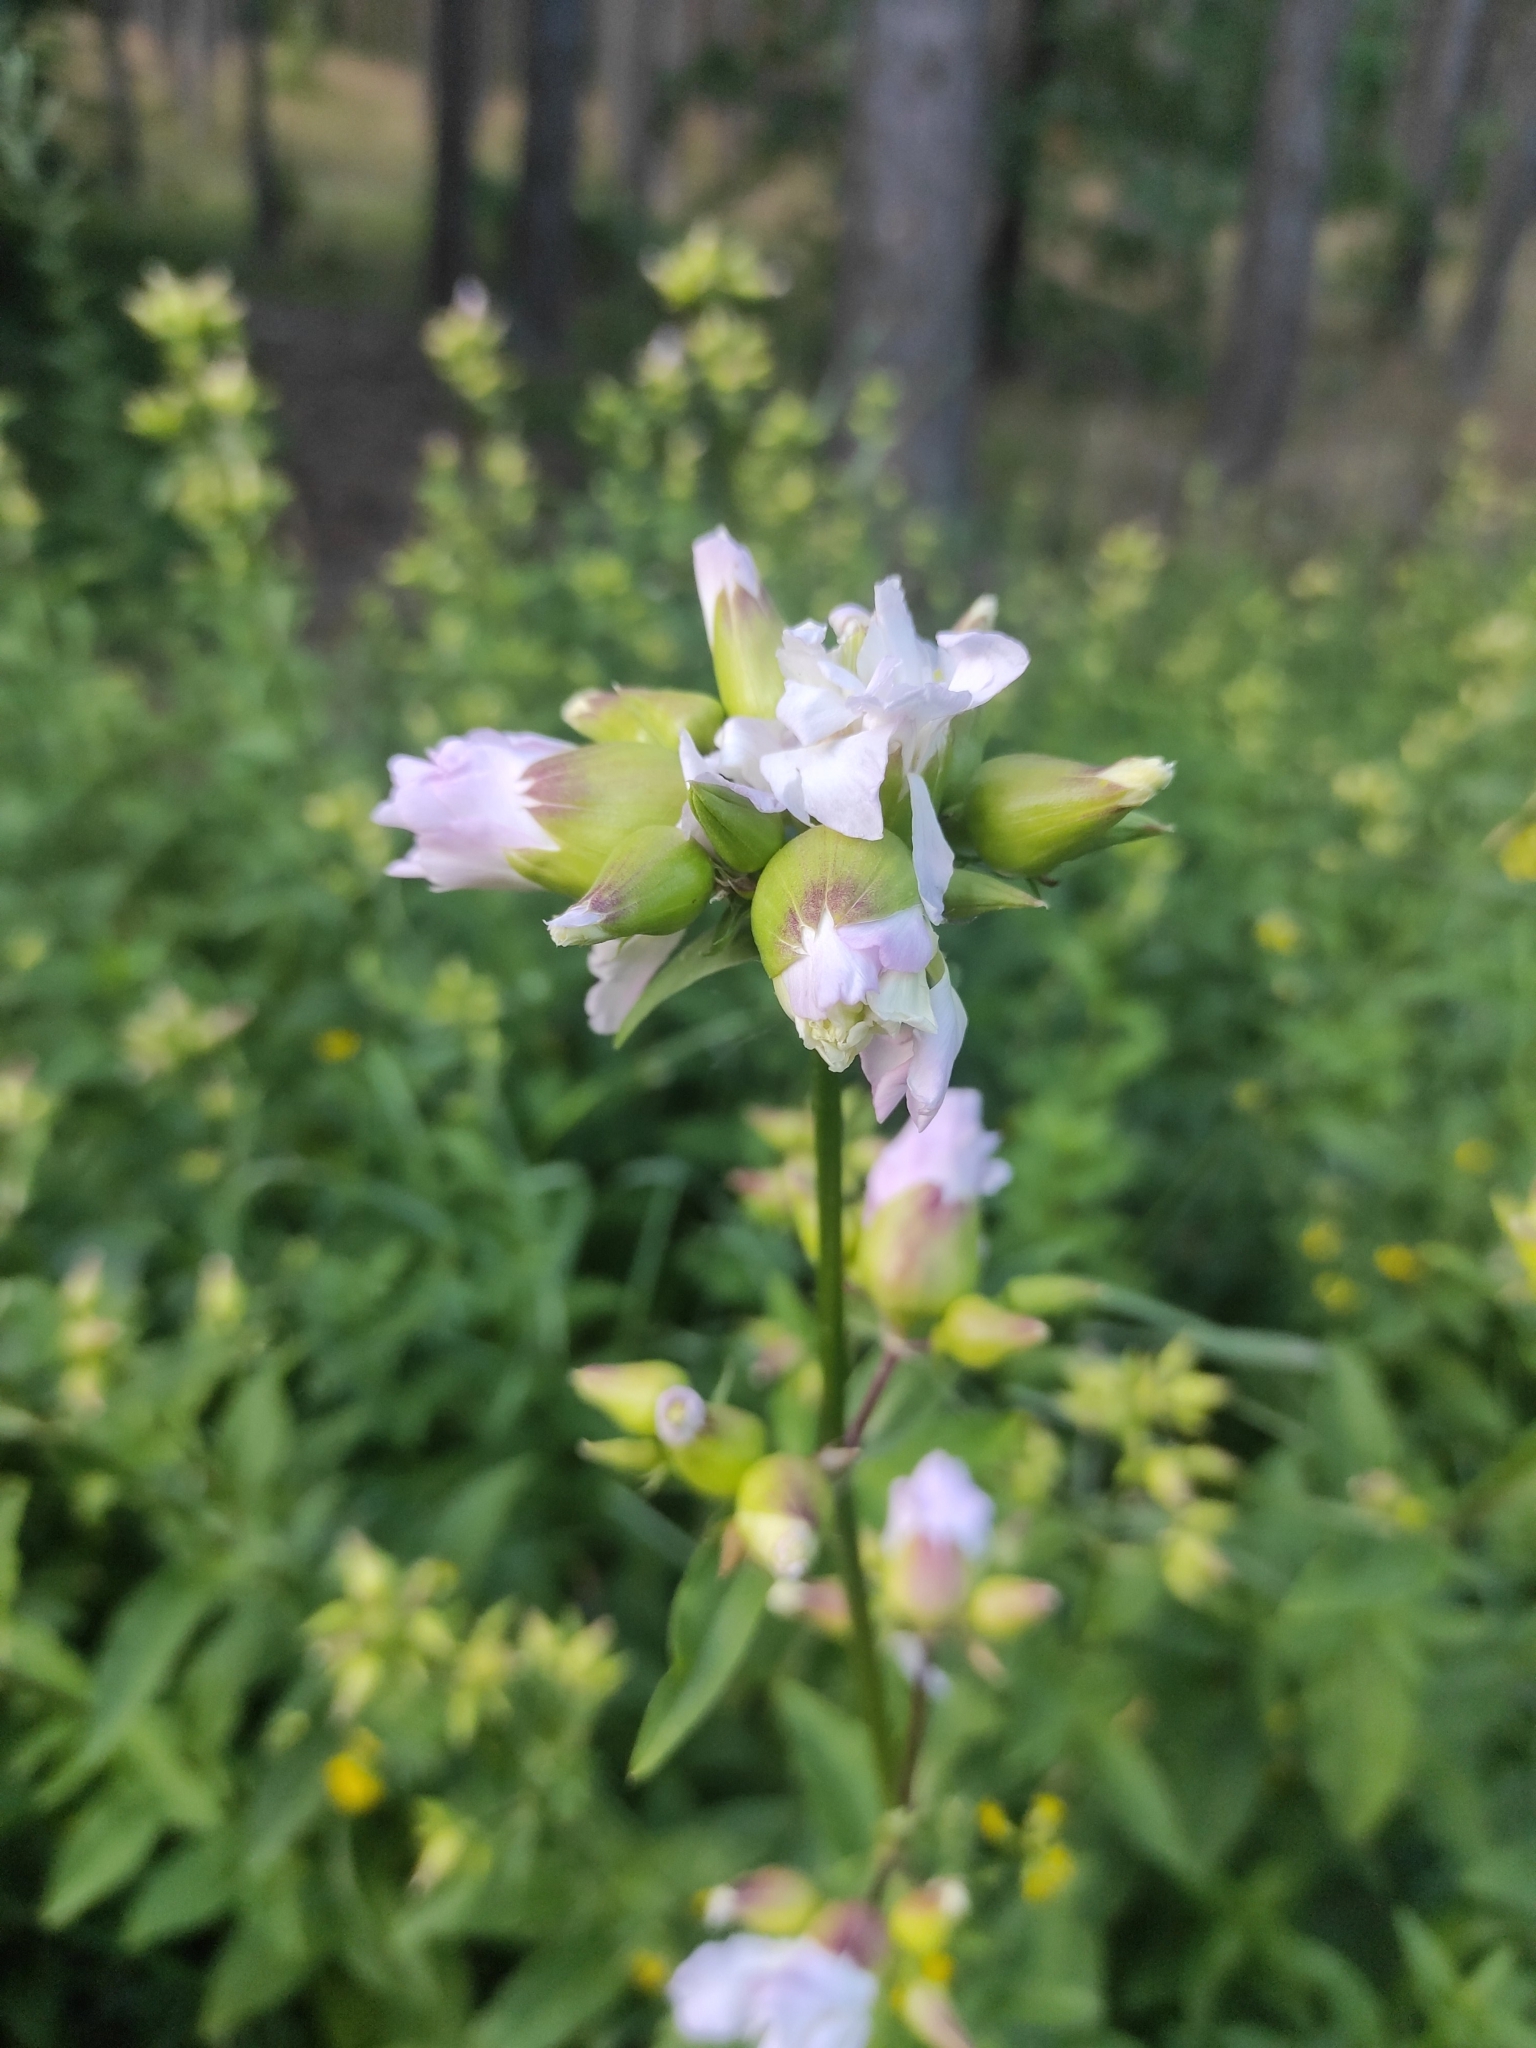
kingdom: Plantae
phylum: Tracheophyta
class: Magnoliopsida
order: Caryophyllales
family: Caryophyllaceae
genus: Saponaria
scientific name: Saponaria officinalis
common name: Soapwort
